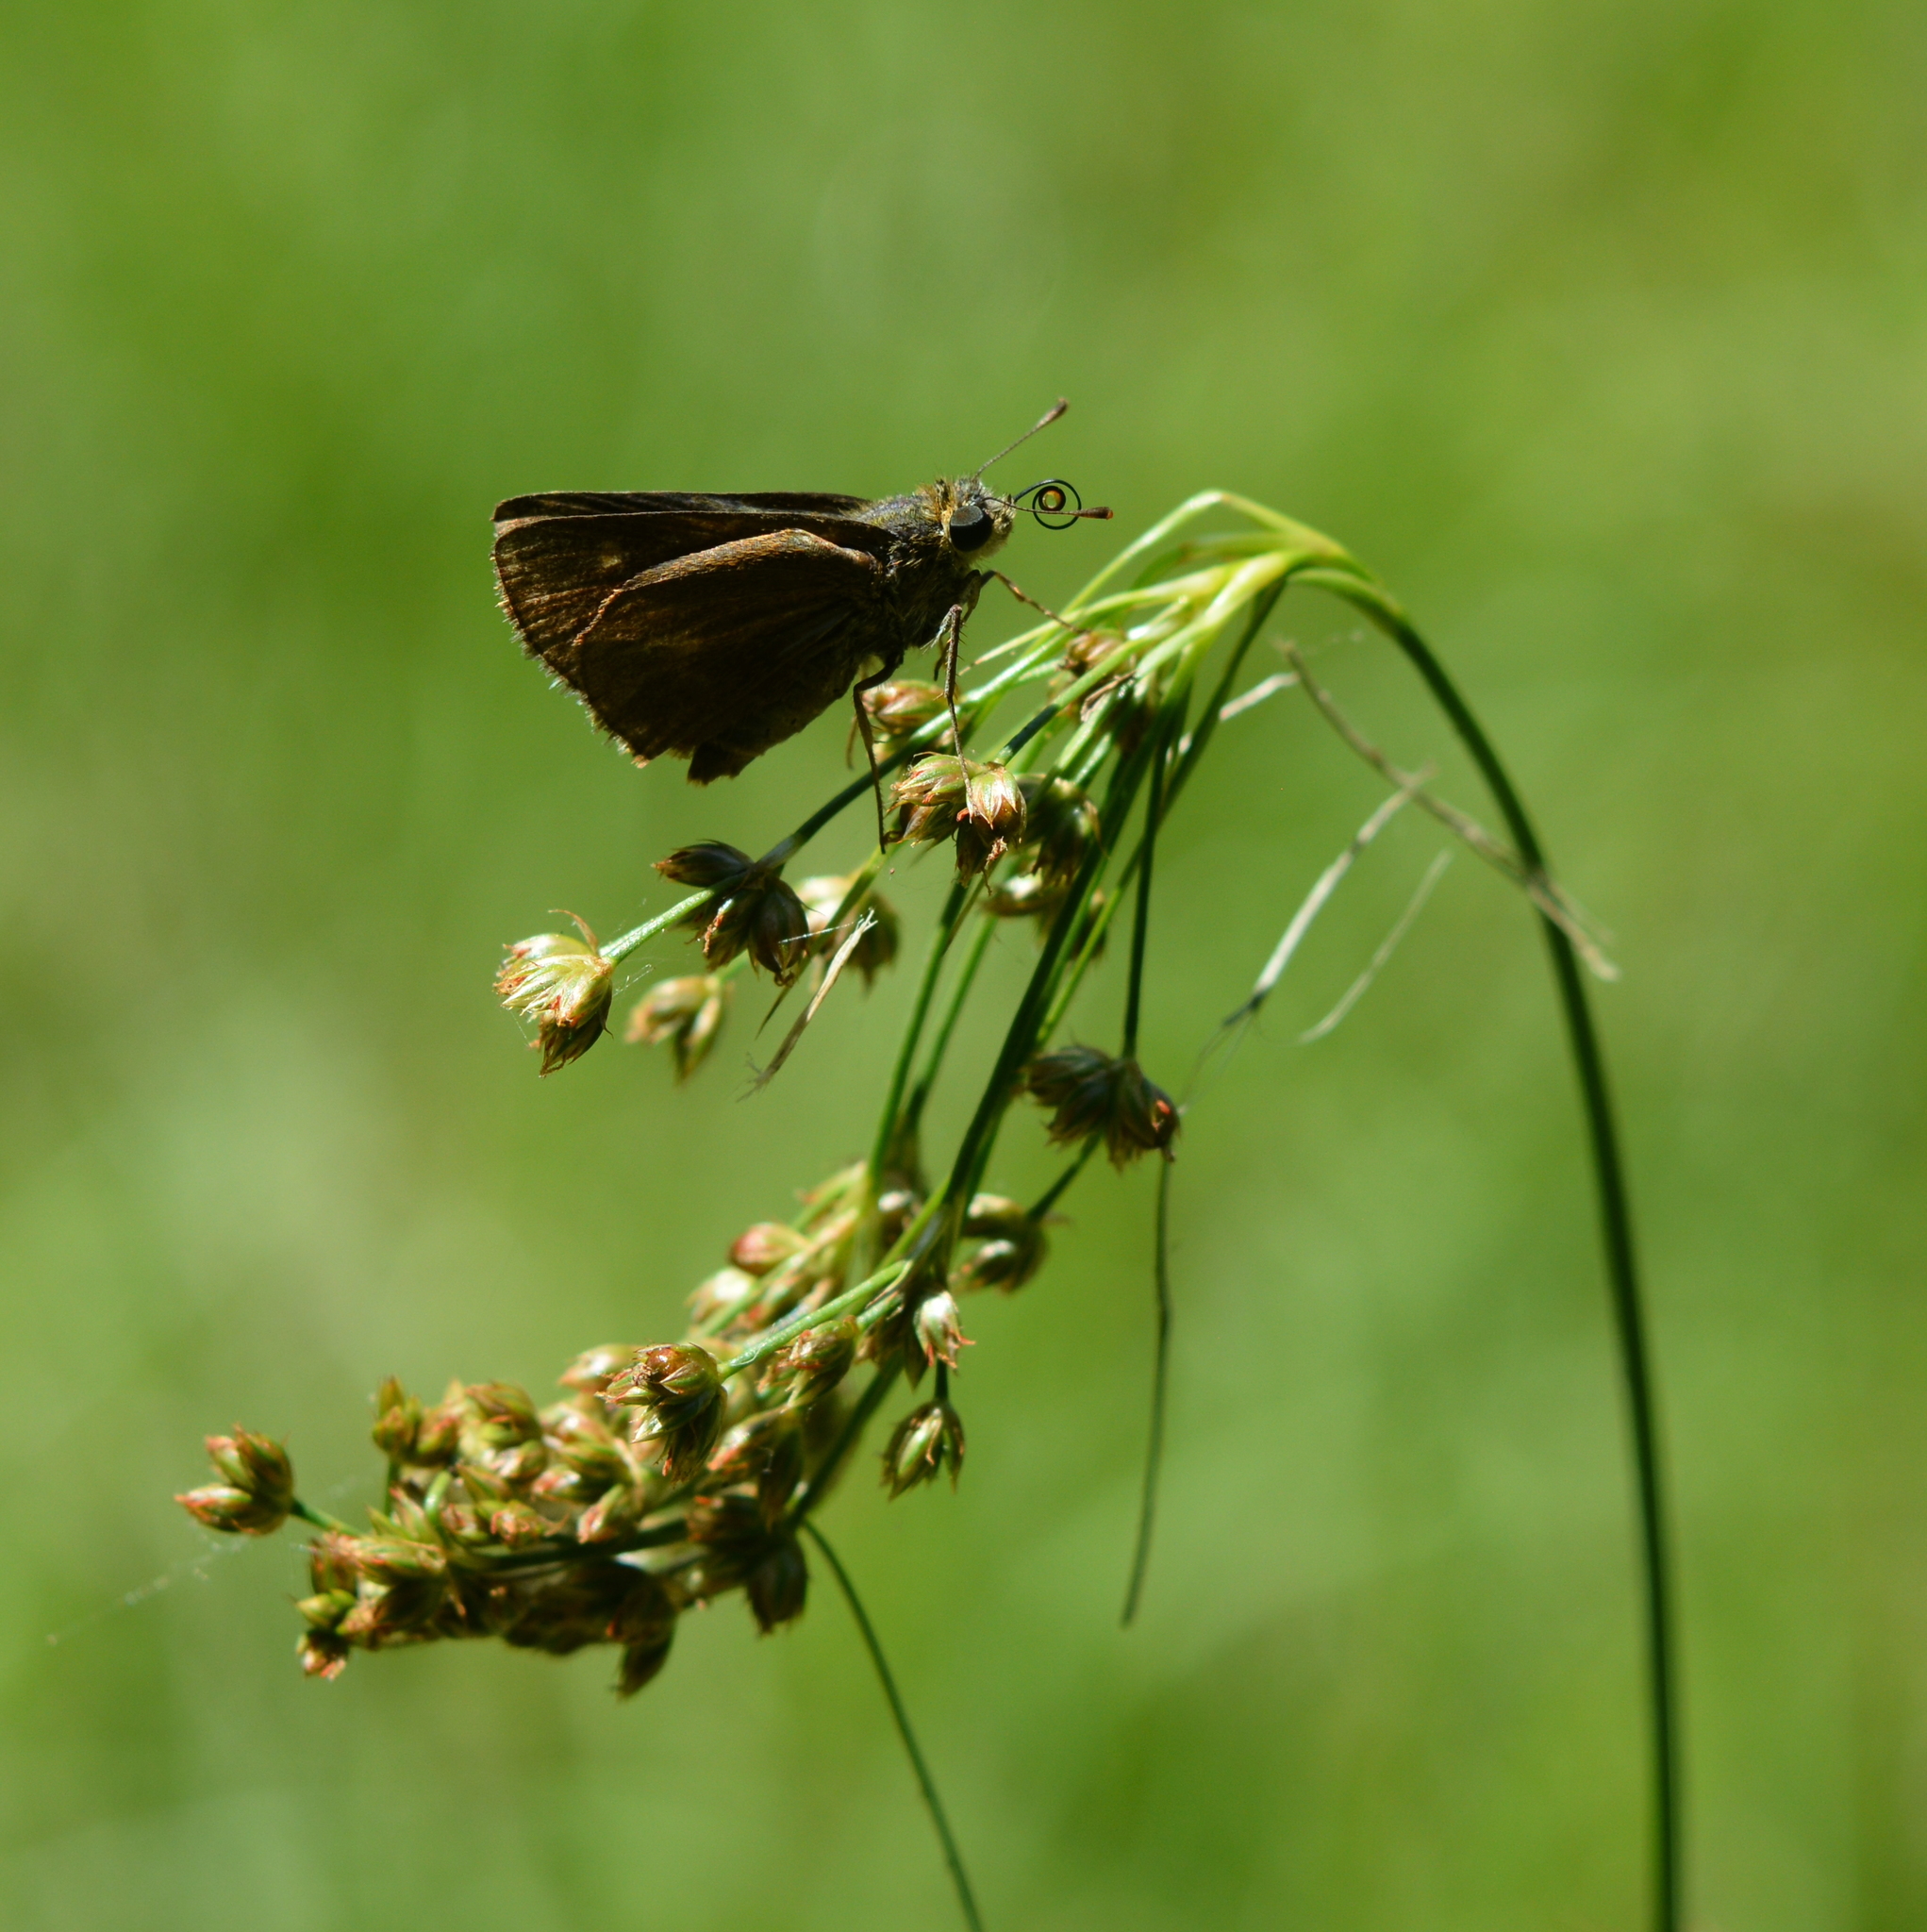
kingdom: Animalia
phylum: Arthropoda
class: Insecta
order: Lepidoptera
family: Hesperiidae
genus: Euphyes
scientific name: Euphyes vestris
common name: Dun skipper
